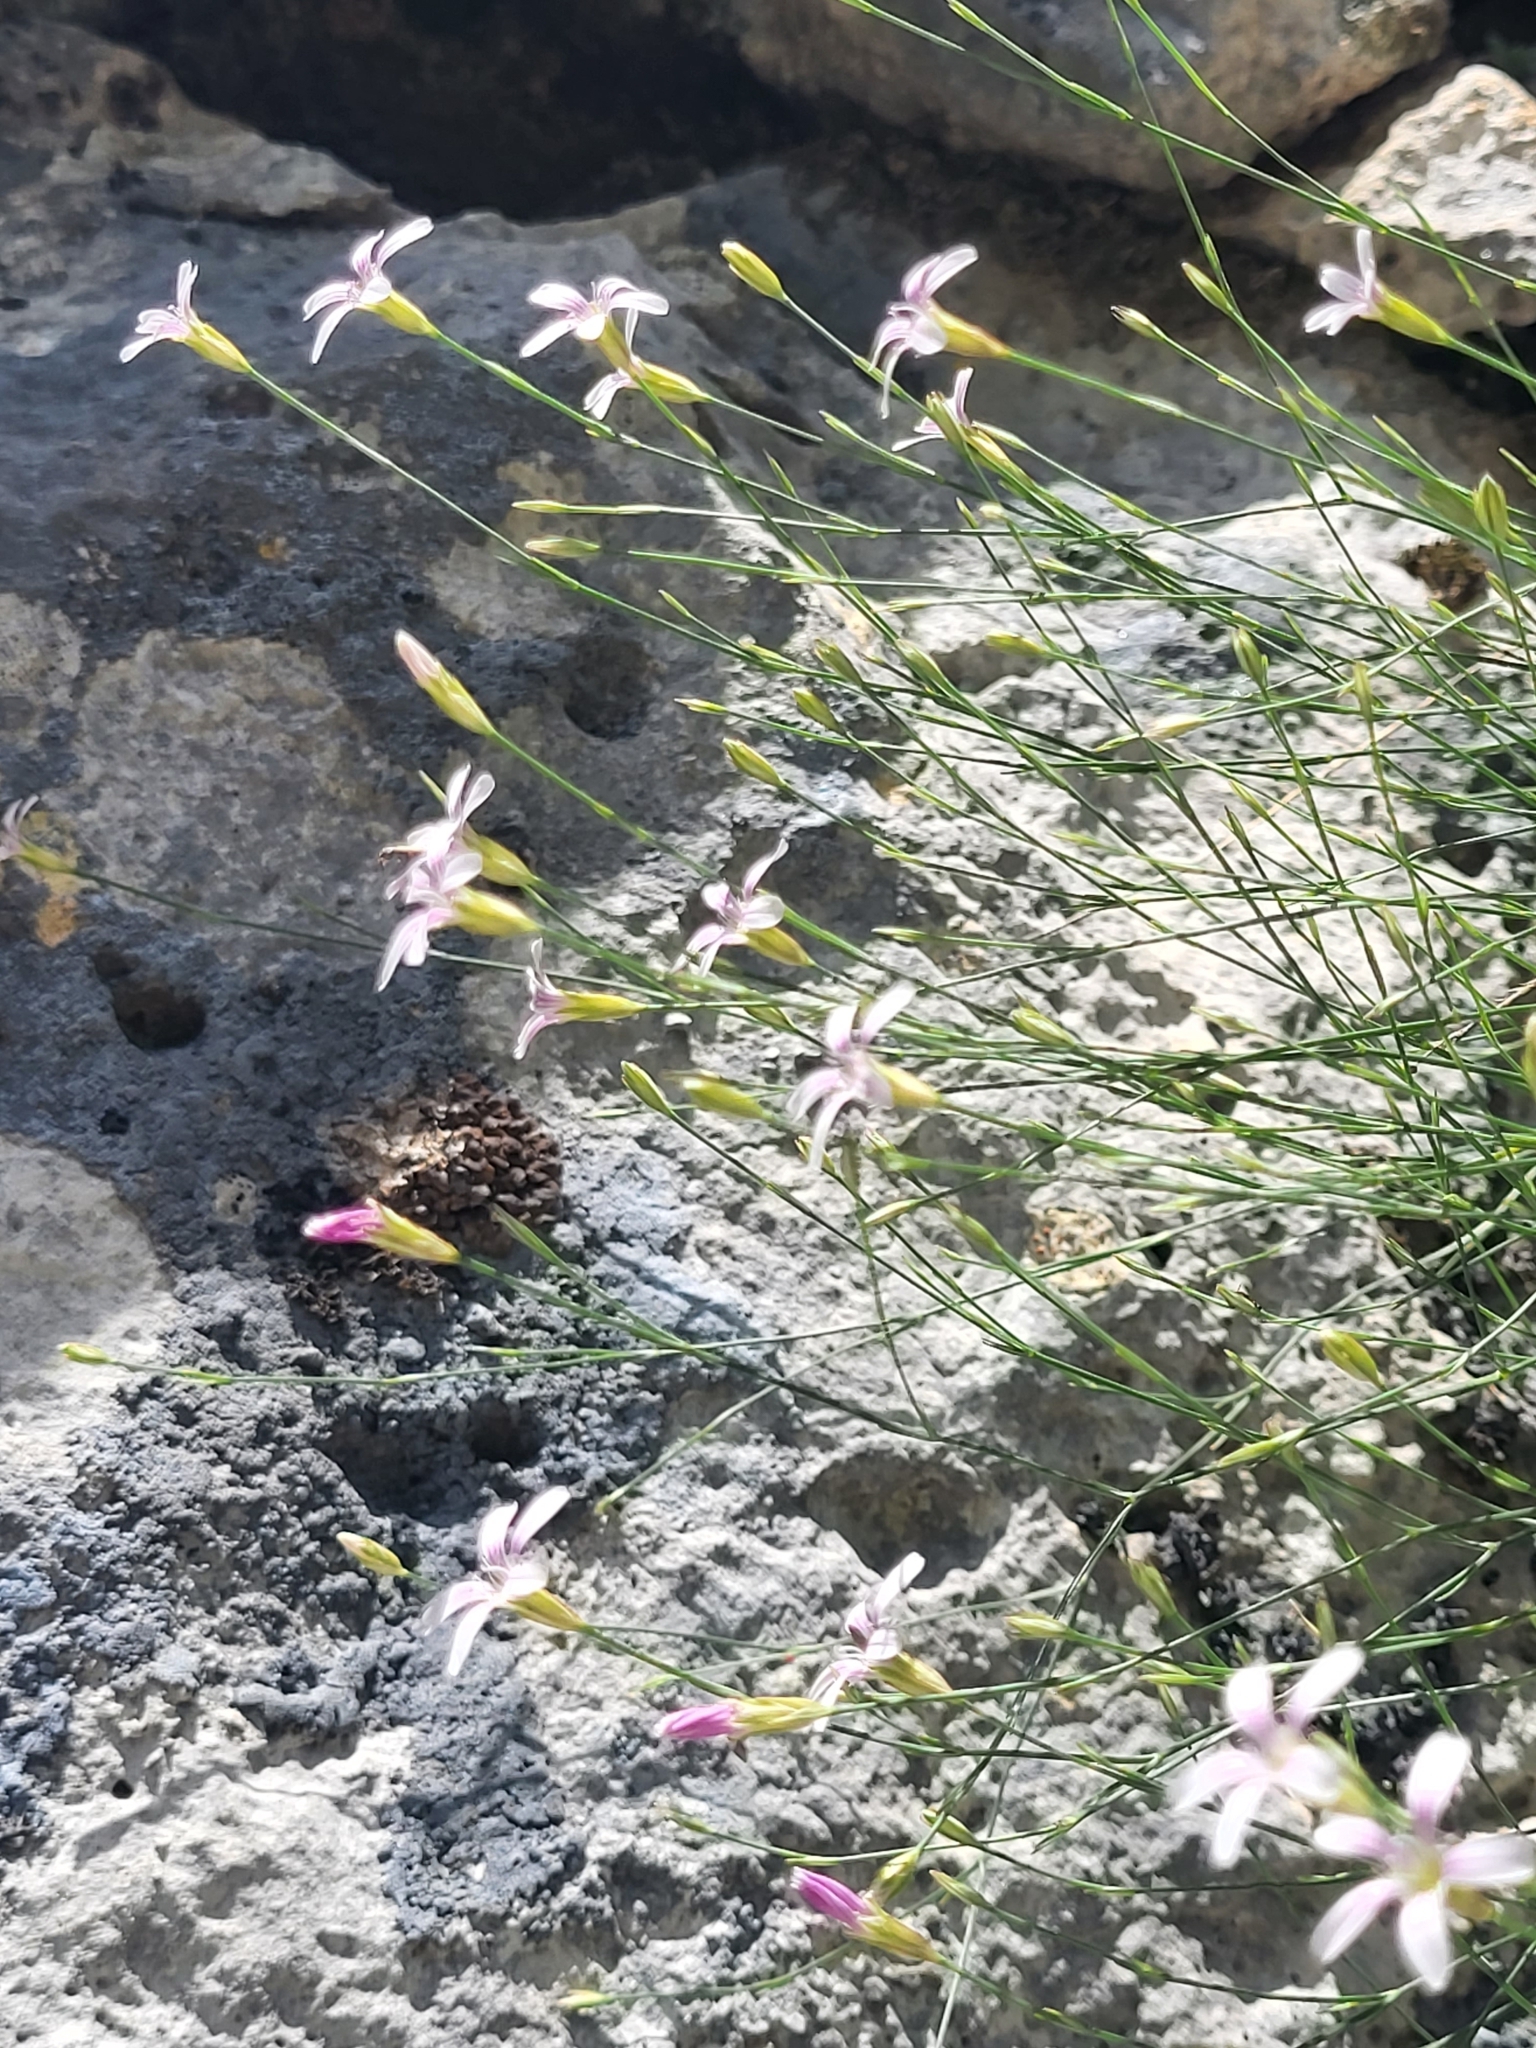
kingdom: Plantae
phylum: Tracheophyta
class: Magnoliopsida
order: Caryophyllales
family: Caryophyllaceae
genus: Petrorhagia
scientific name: Petrorhagia saxifraga
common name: Tunicflower
